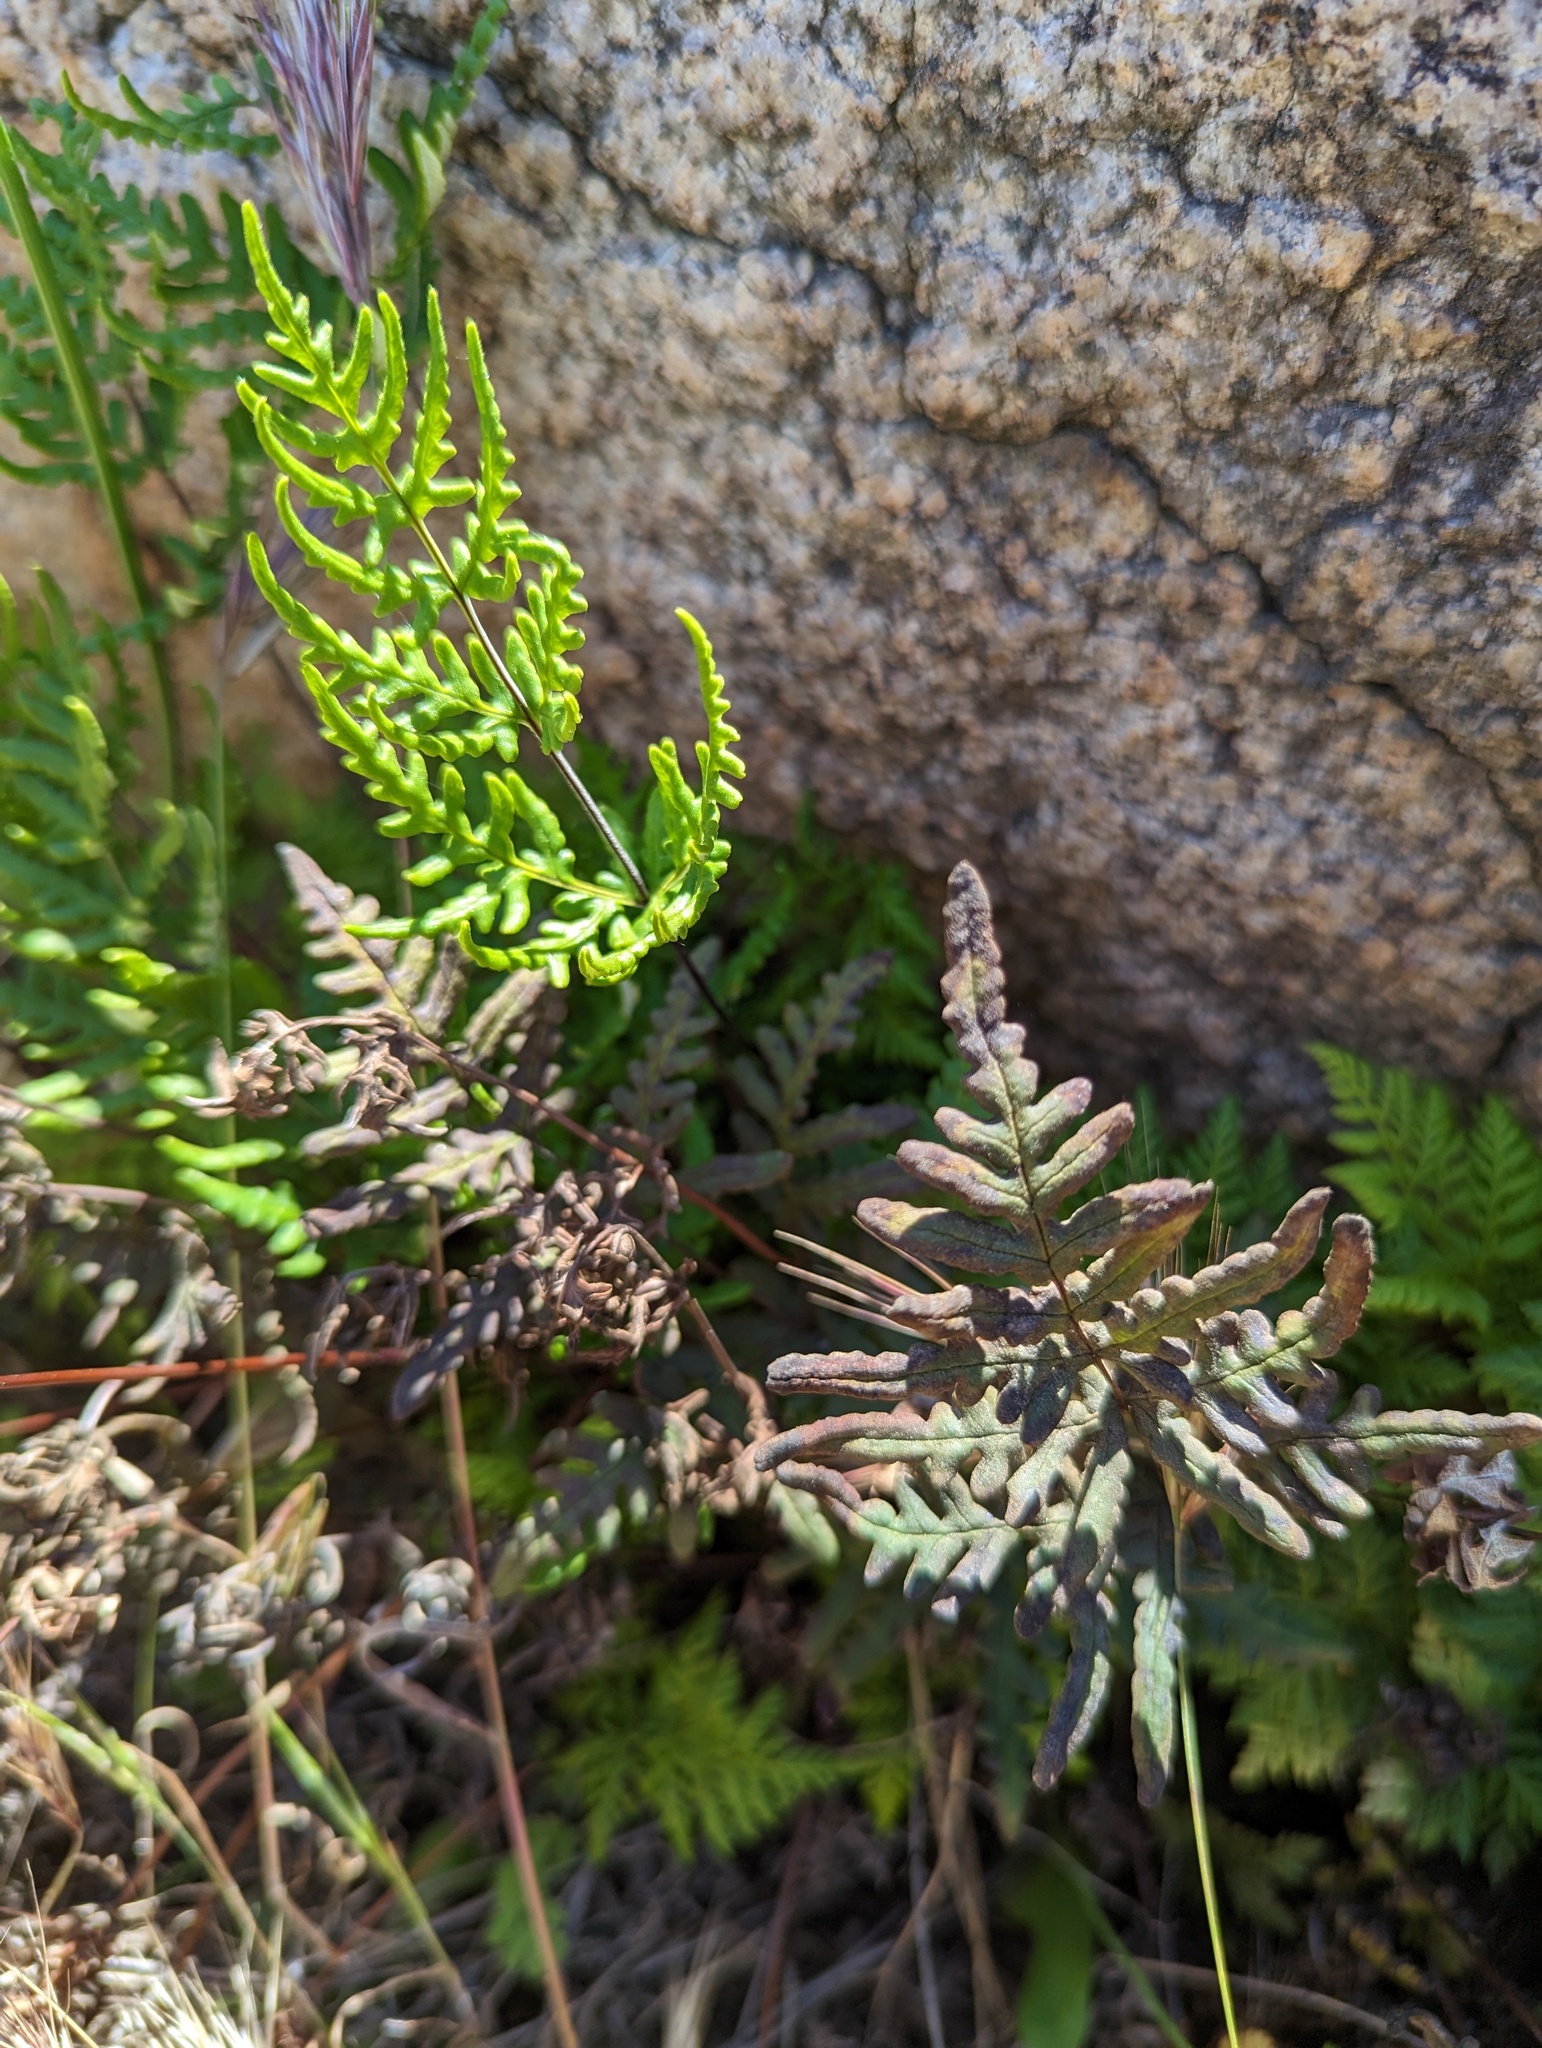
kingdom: Plantae
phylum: Tracheophyta
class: Polypodiopsida
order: Polypodiales
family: Pteridaceae
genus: Pentagramma
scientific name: Pentagramma viscosa
